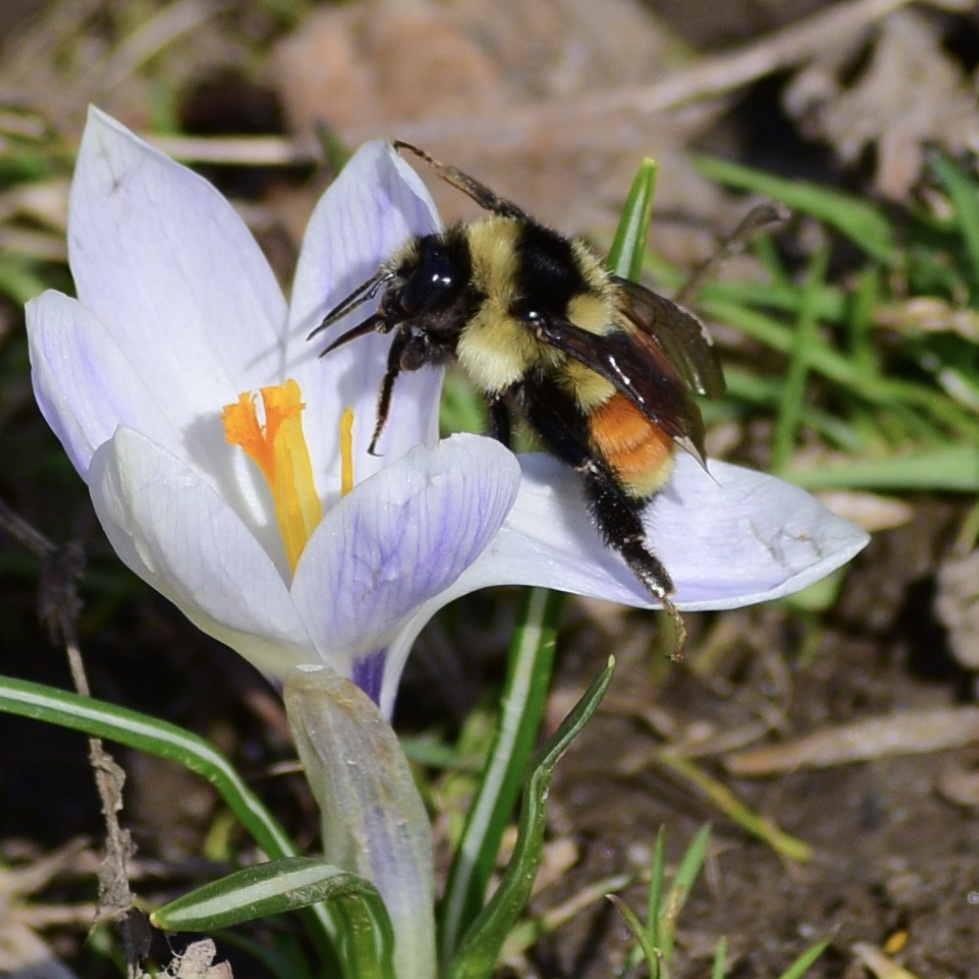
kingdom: Animalia
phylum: Arthropoda
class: Insecta
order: Hymenoptera
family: Apidae
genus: Bombus
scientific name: Bombus ternarius
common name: Tri-colored bumble bee
